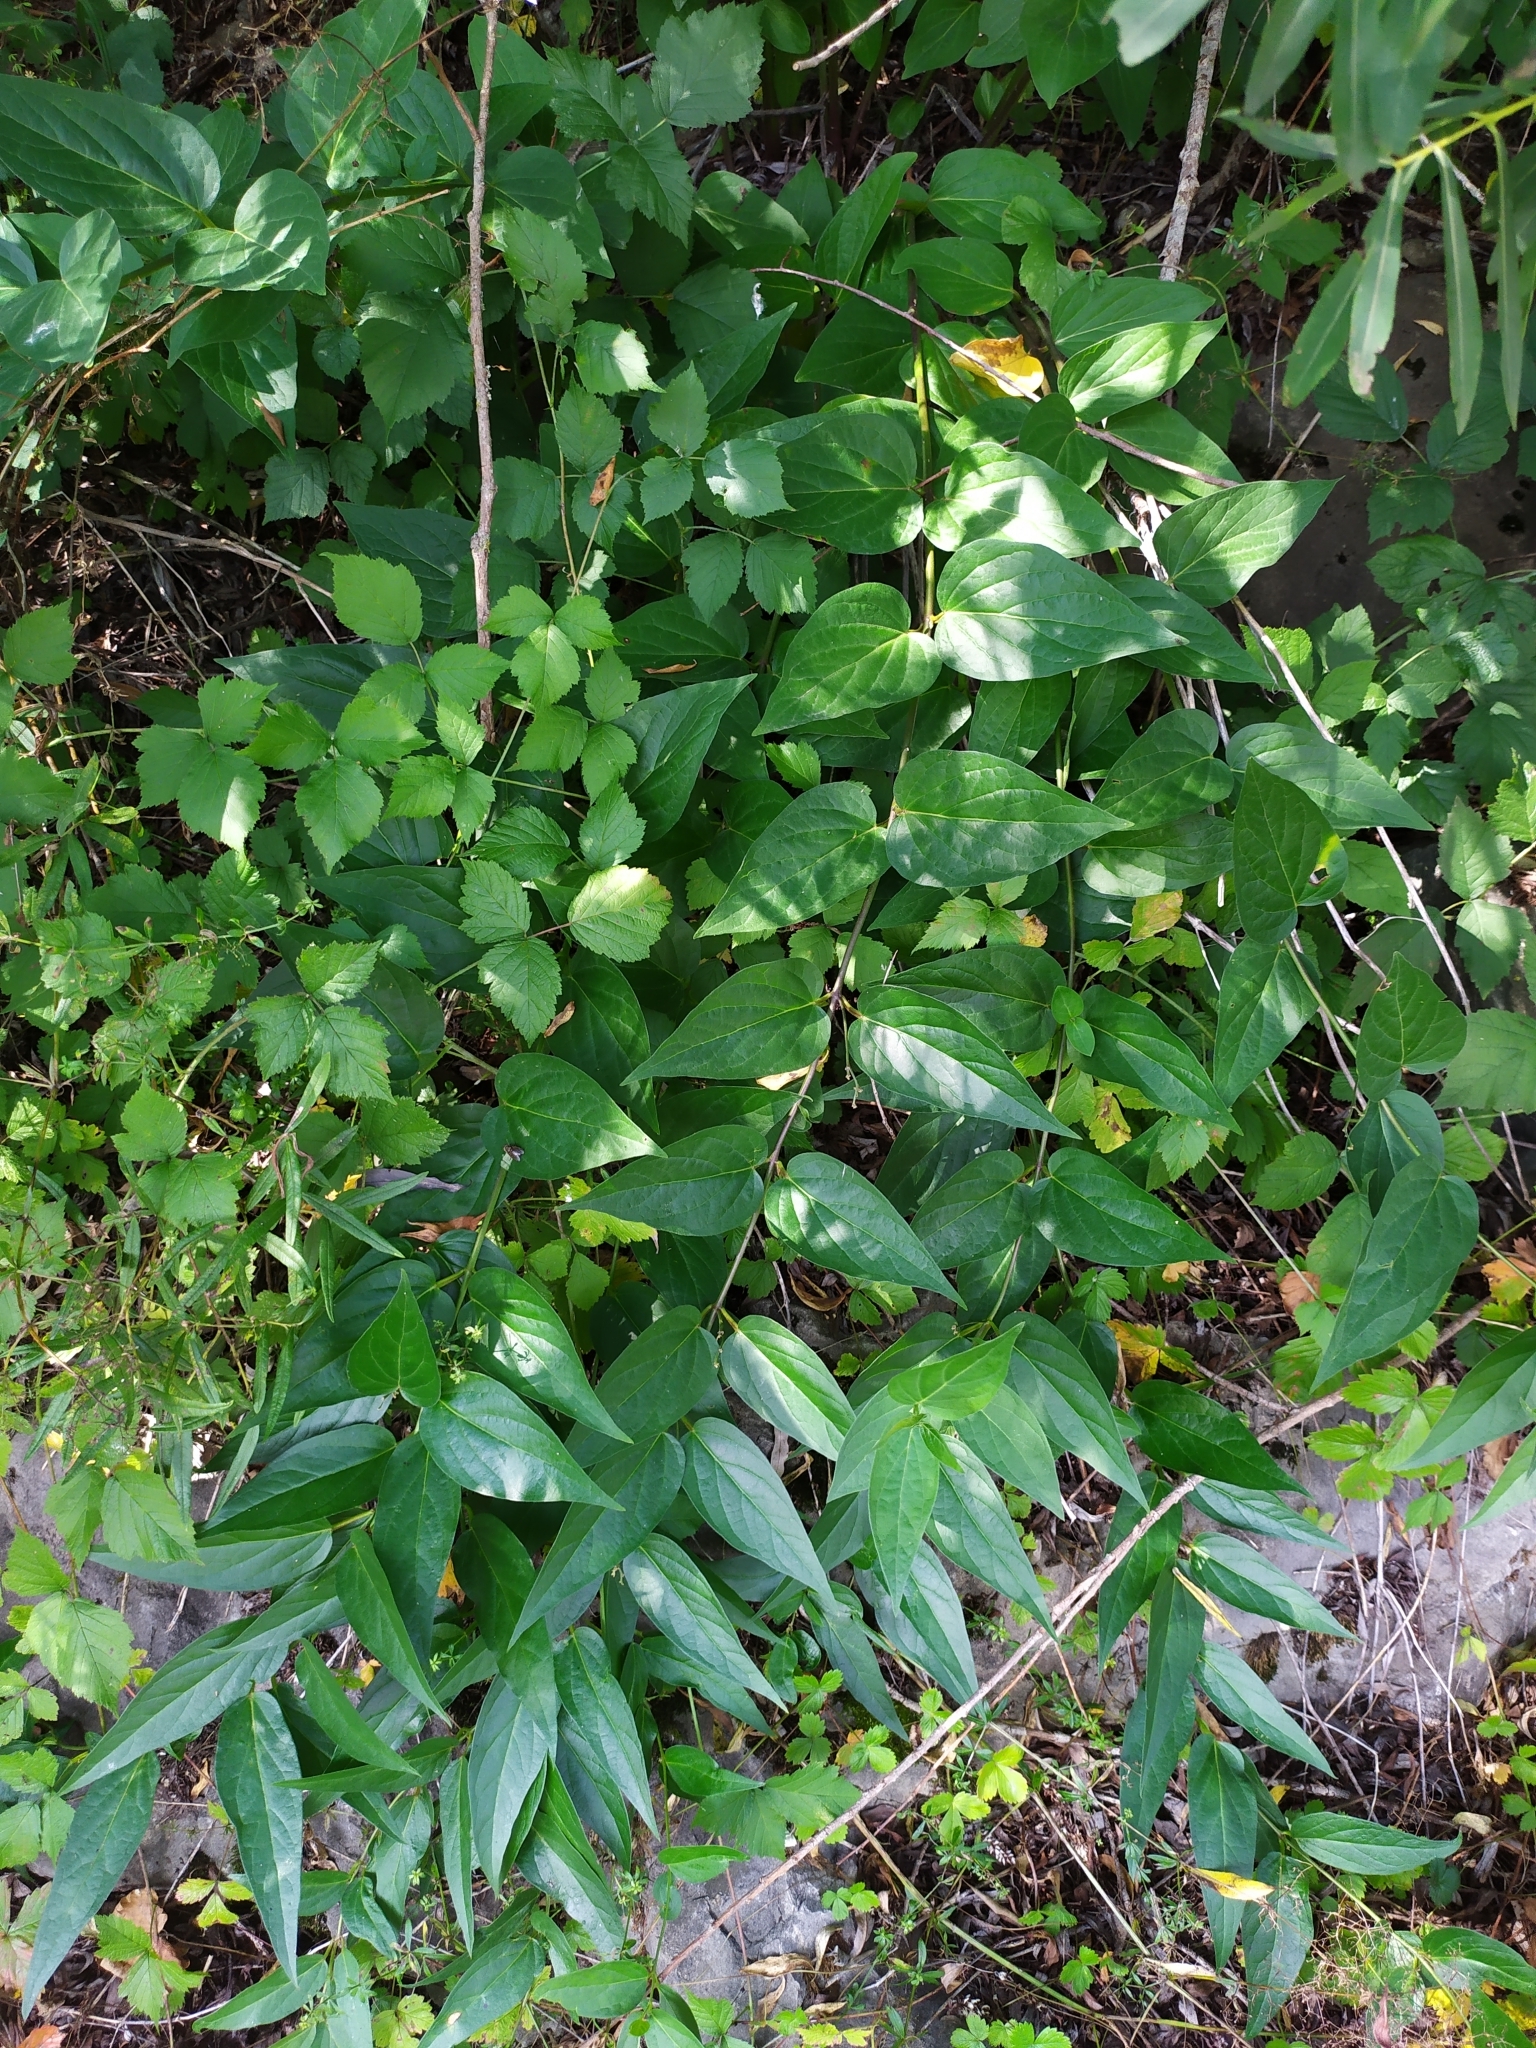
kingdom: Plantae
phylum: Tracheophyta
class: Magnoliopsida
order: Gentianales
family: Apocynaceae
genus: Vincetoxicum
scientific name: Vincetoxicum hirundinaria
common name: White swallowwort
